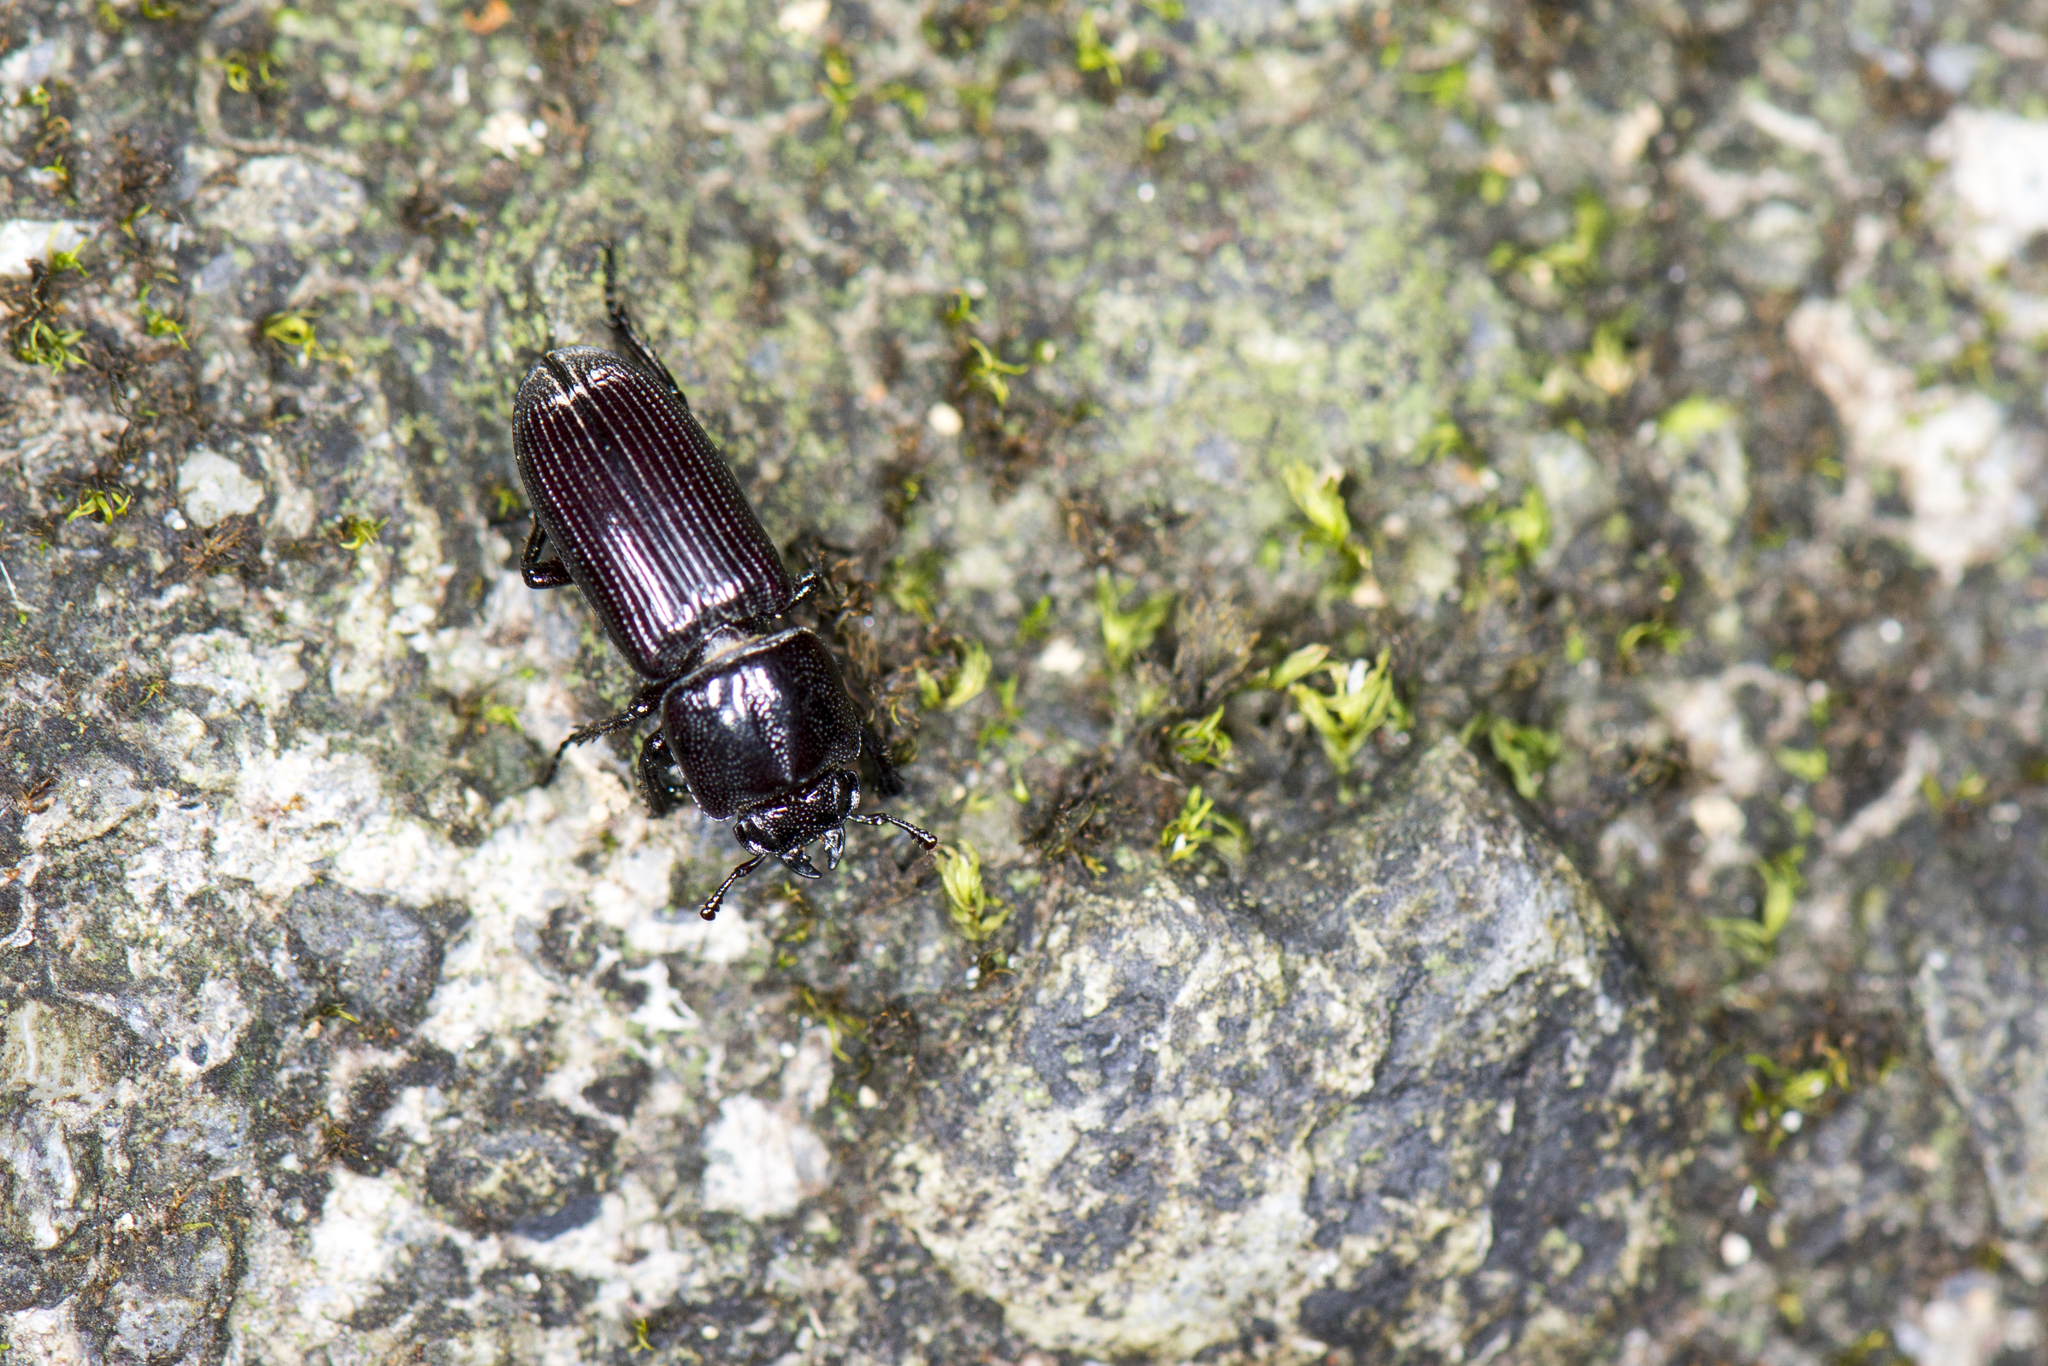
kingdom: Animalia
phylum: Arthropoda
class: Insecta
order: Coleoptera
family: Lucanidae
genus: Figulus
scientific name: Figulus punctatus
